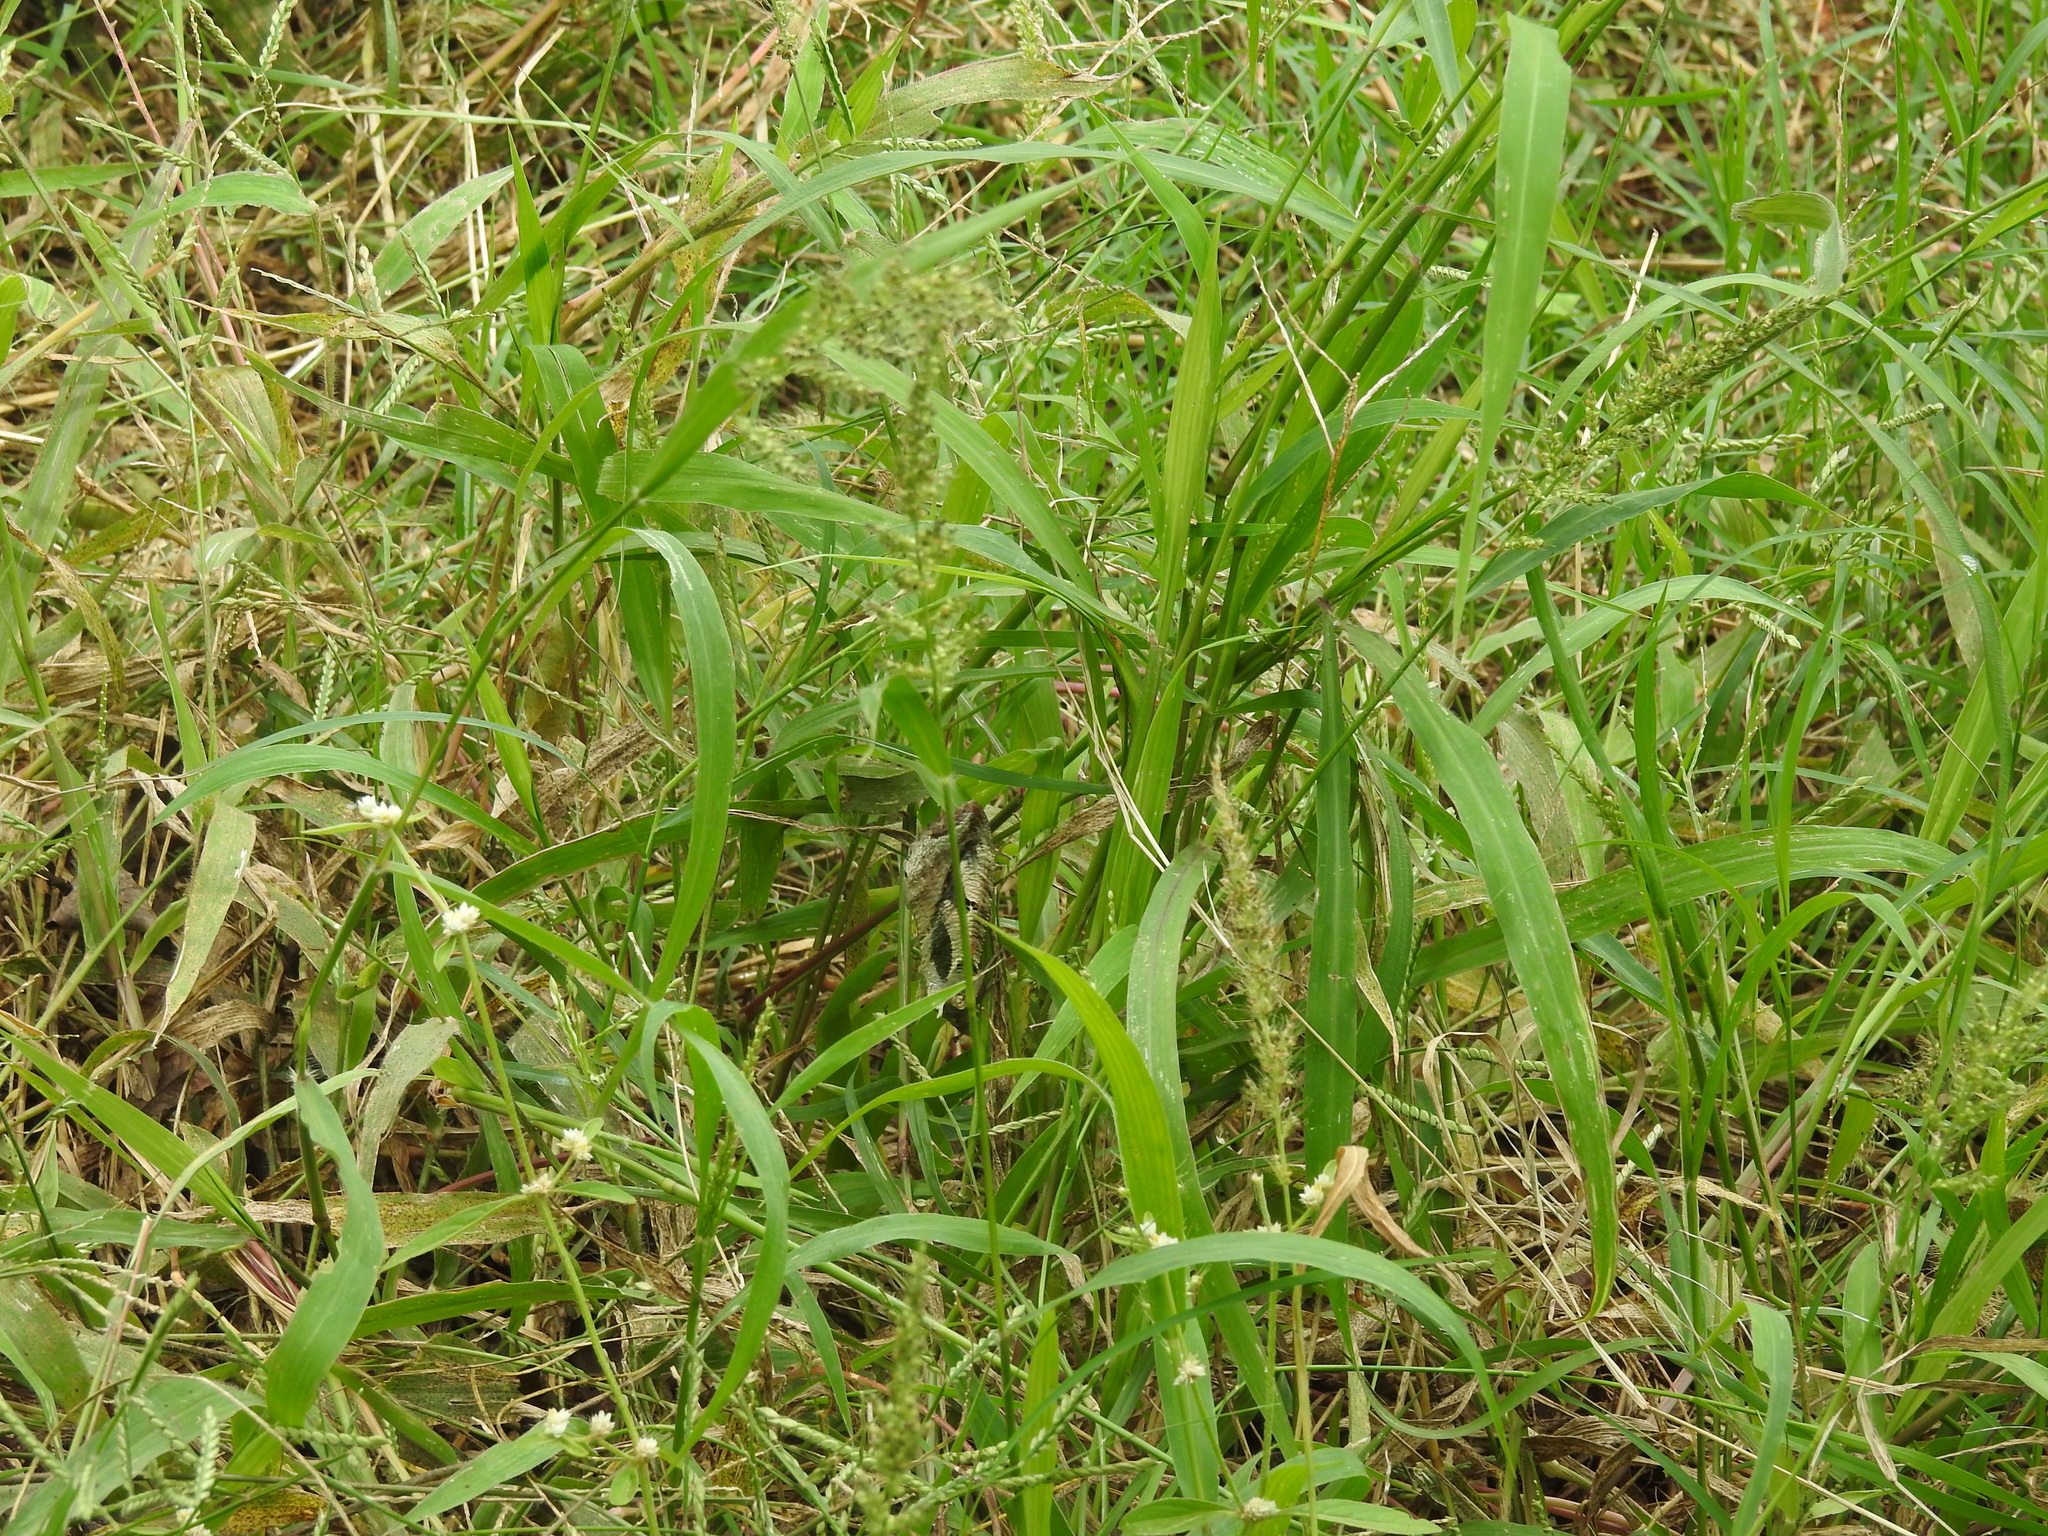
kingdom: Animalia
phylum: Arthropoda
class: Insecta
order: Lepidoptera
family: Erebidae
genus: Eudocima
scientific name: Eudocima materna
